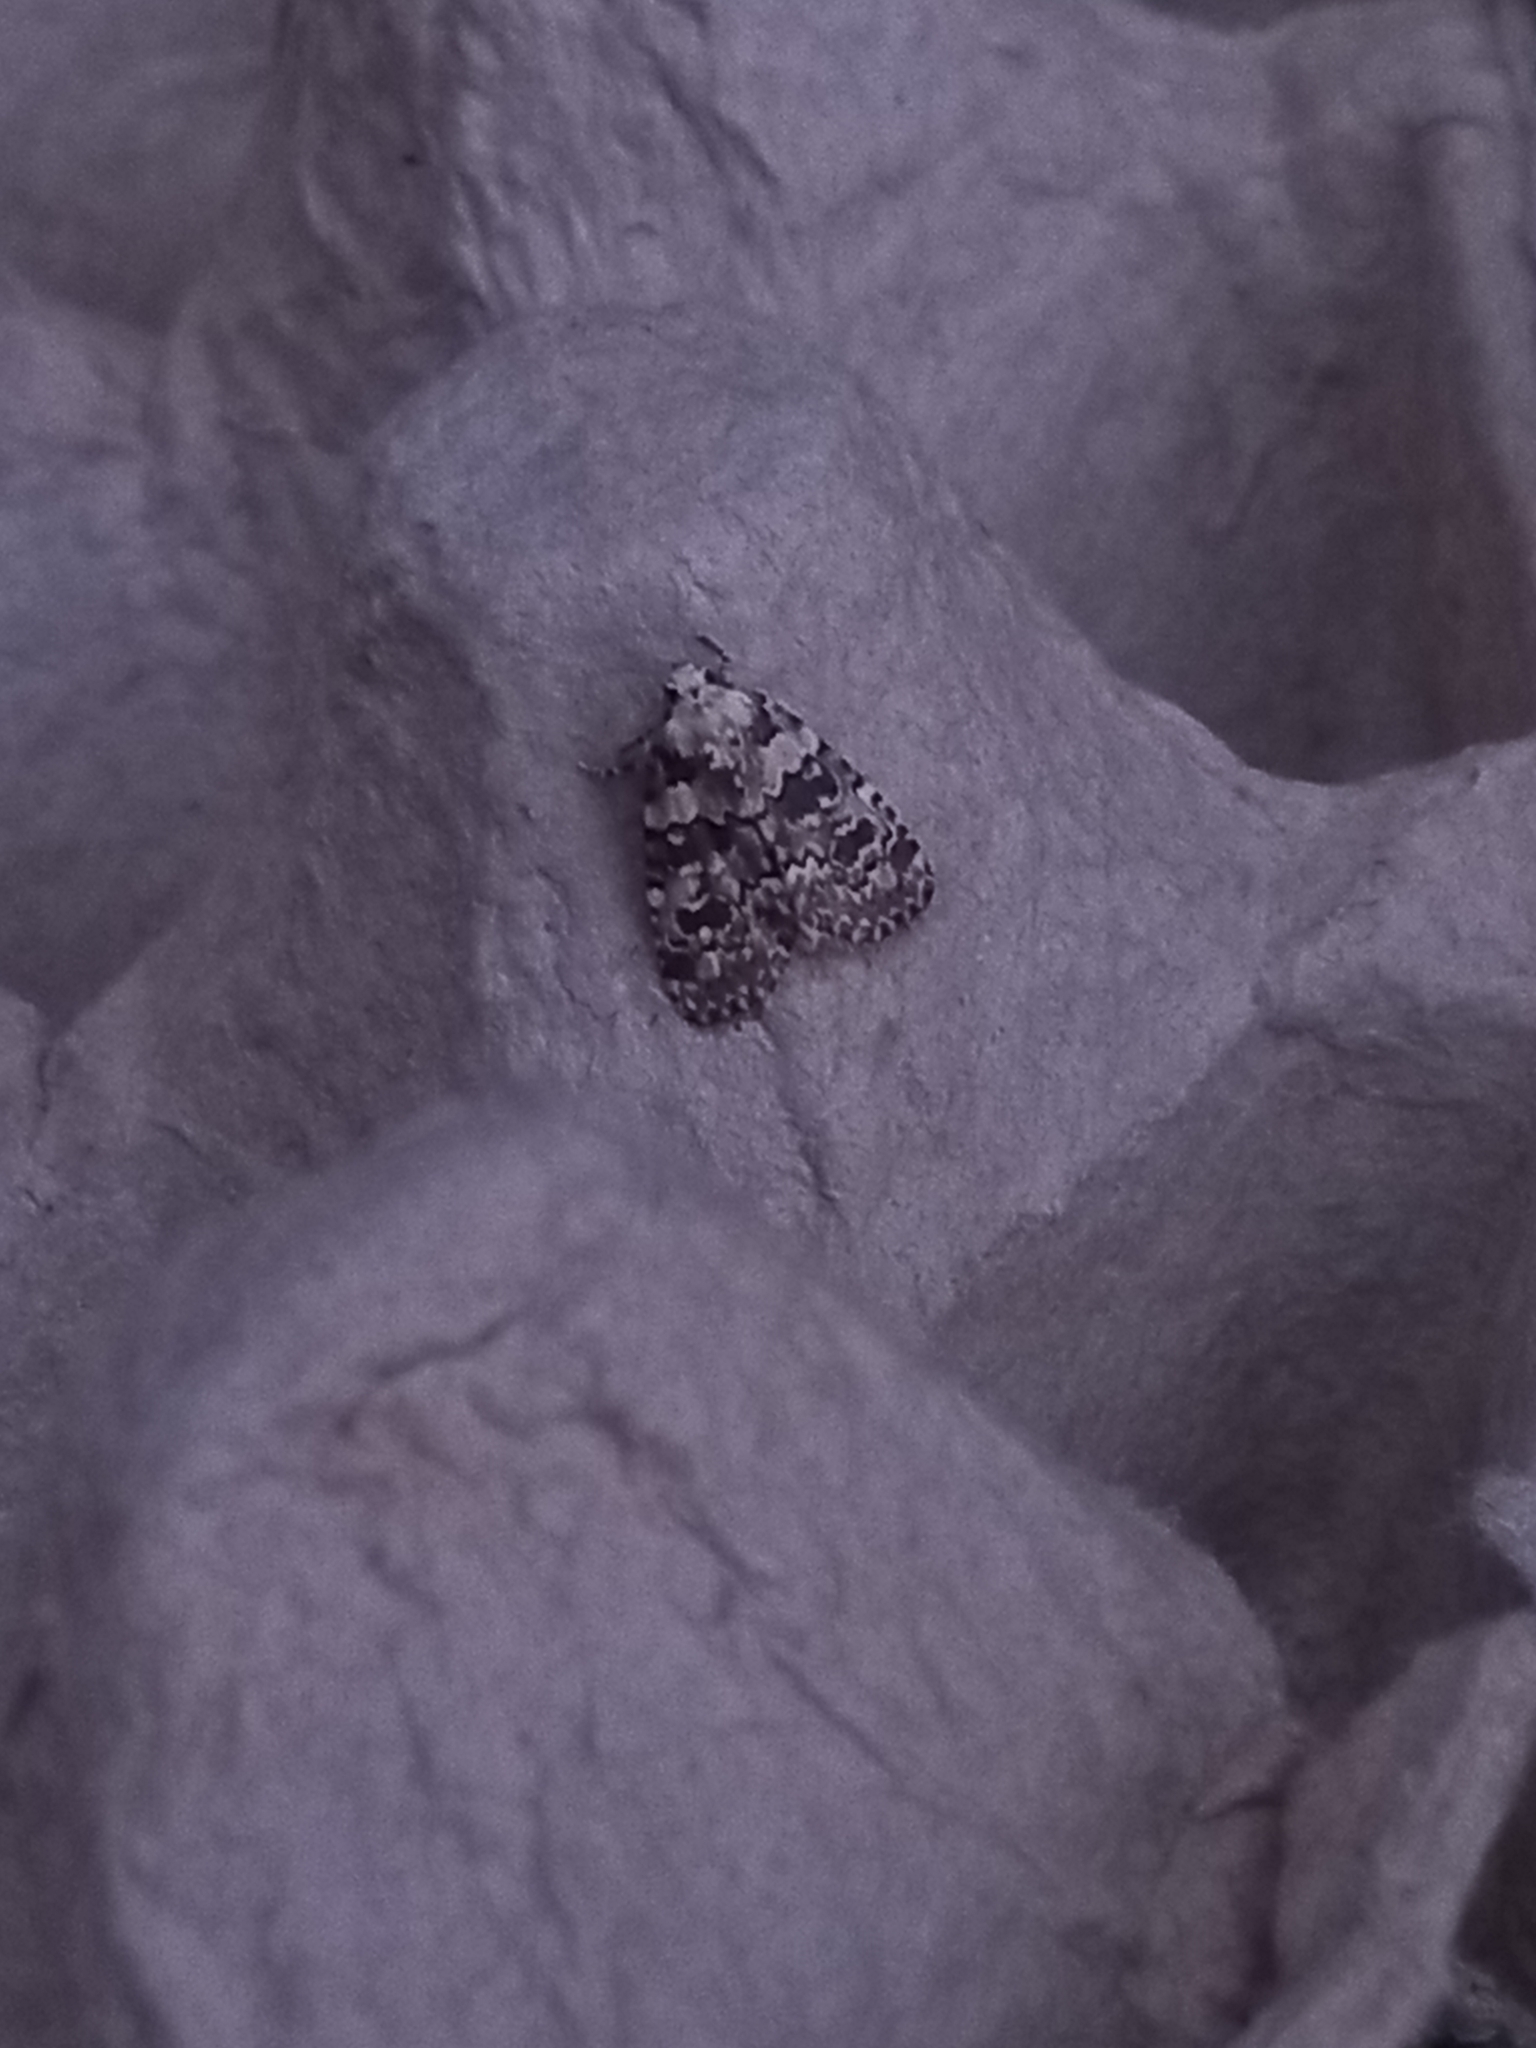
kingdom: Animalia
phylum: Arthropoda
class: Insecta
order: Lepidoptera
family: Noctuidae
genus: Bryophila
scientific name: Bryophila domestica
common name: Marbled beauty
